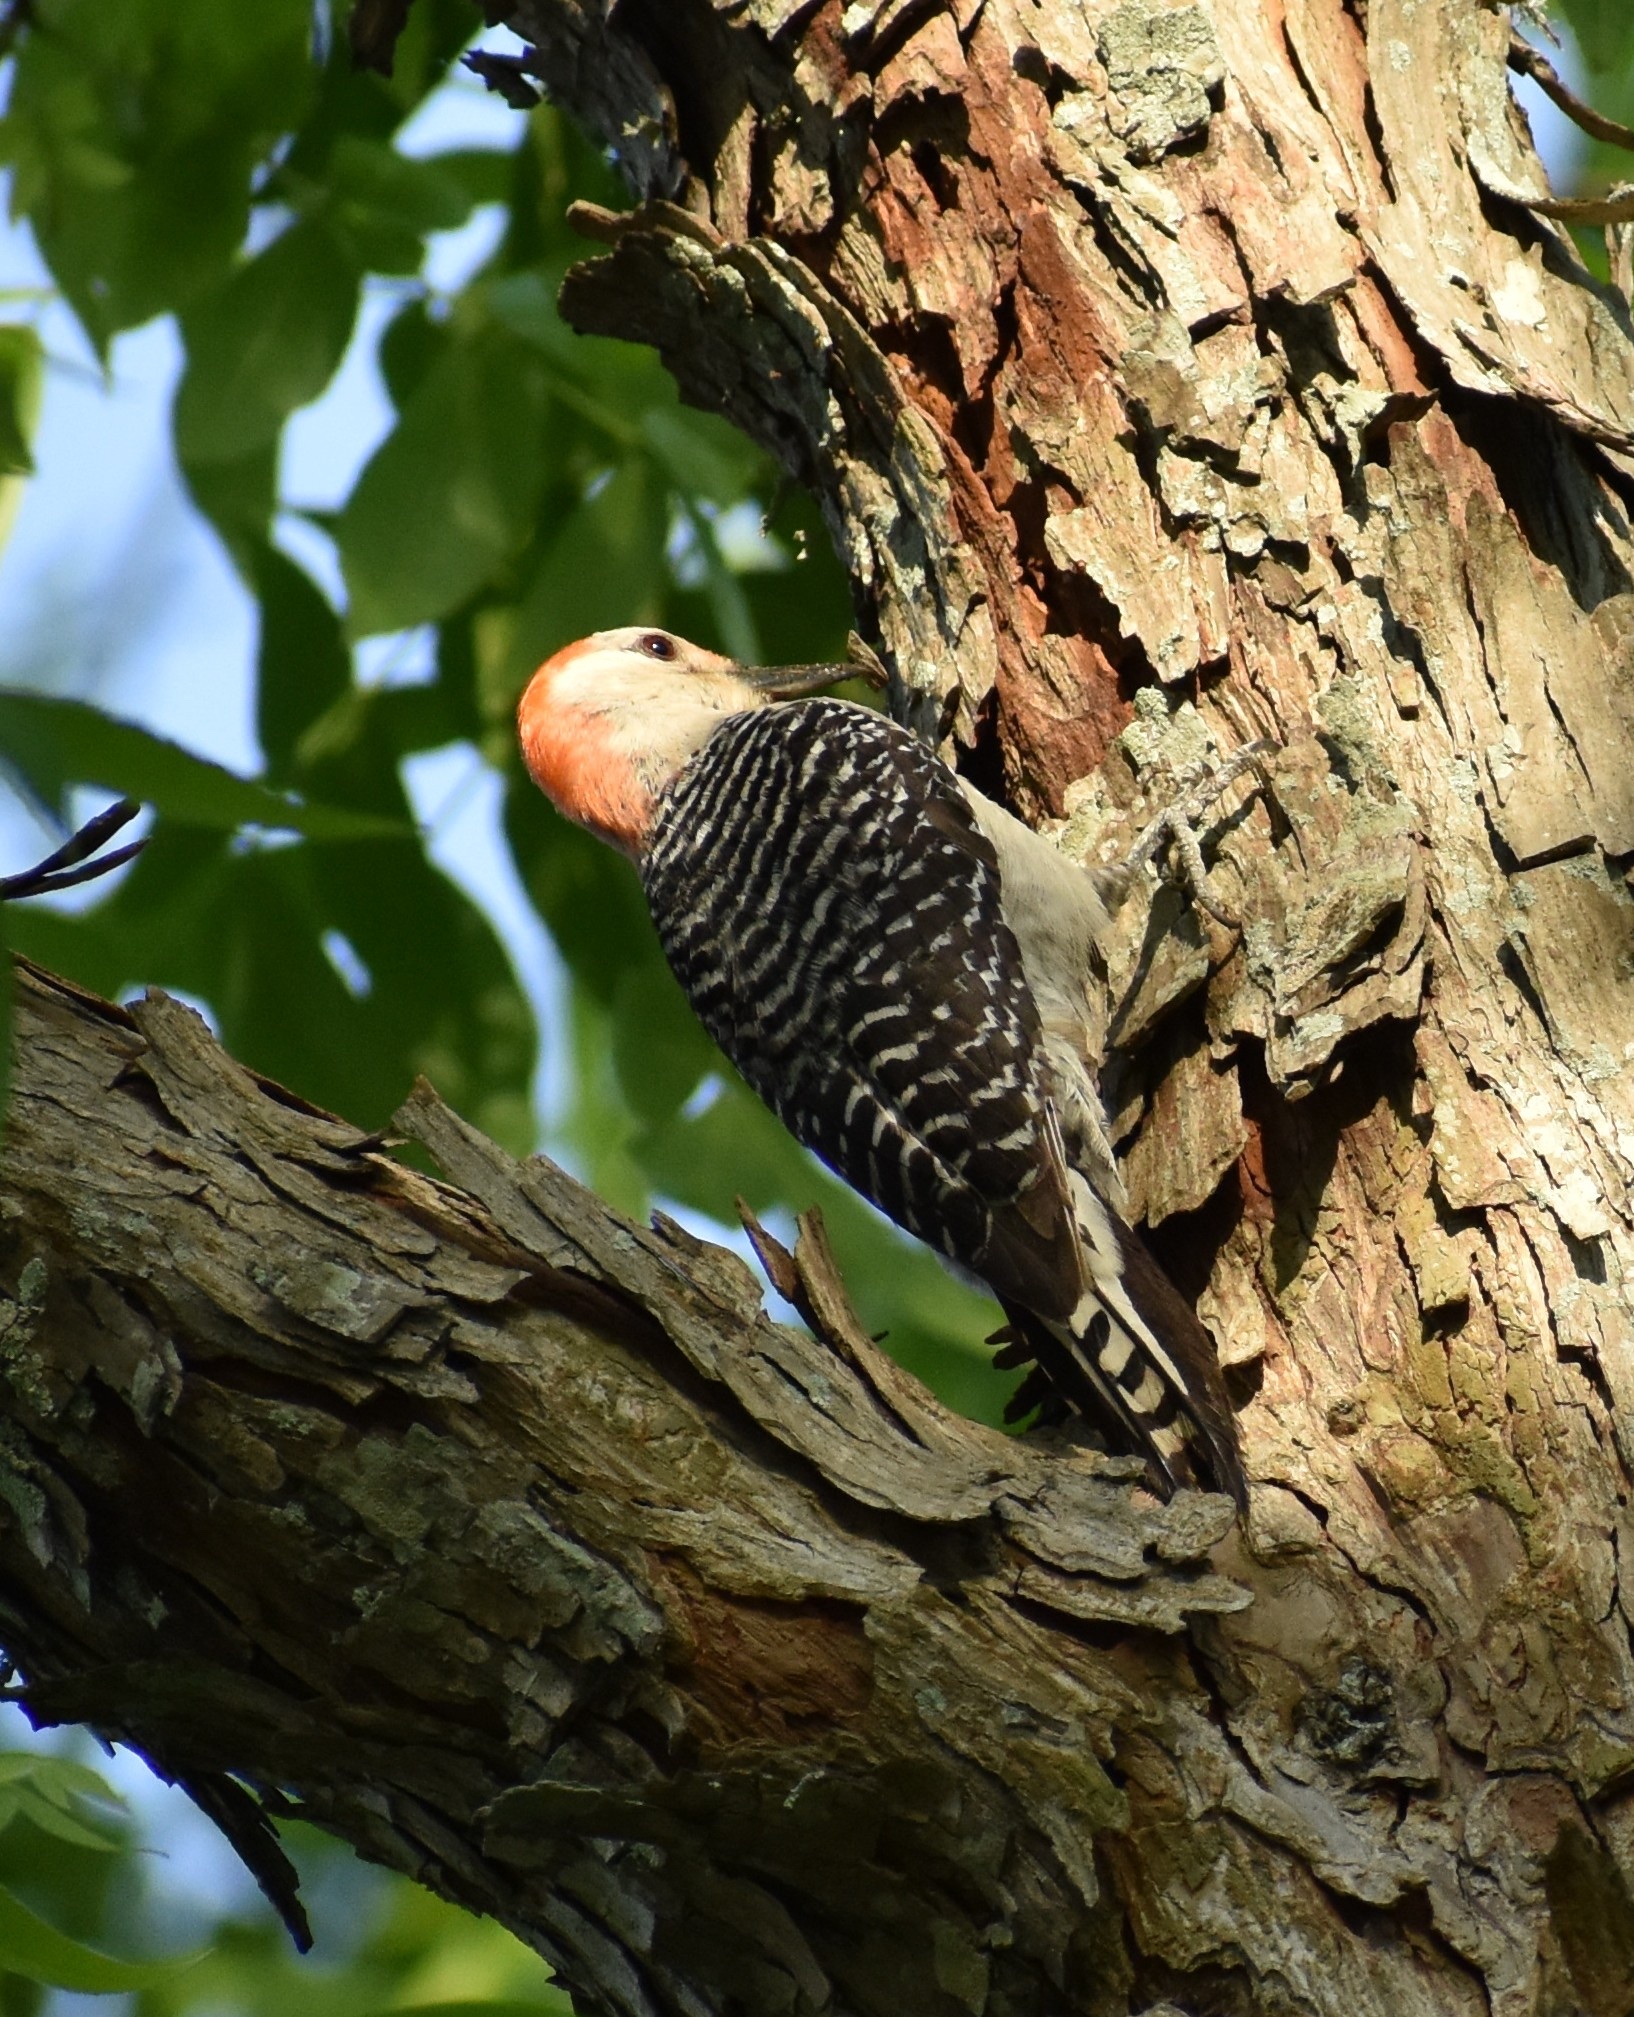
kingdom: Animalia
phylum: Chordata
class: Aves
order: Piciformes
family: Picidae
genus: Melanerpes
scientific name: Melanerpes carolinus
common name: Red-bellied woodpecker
